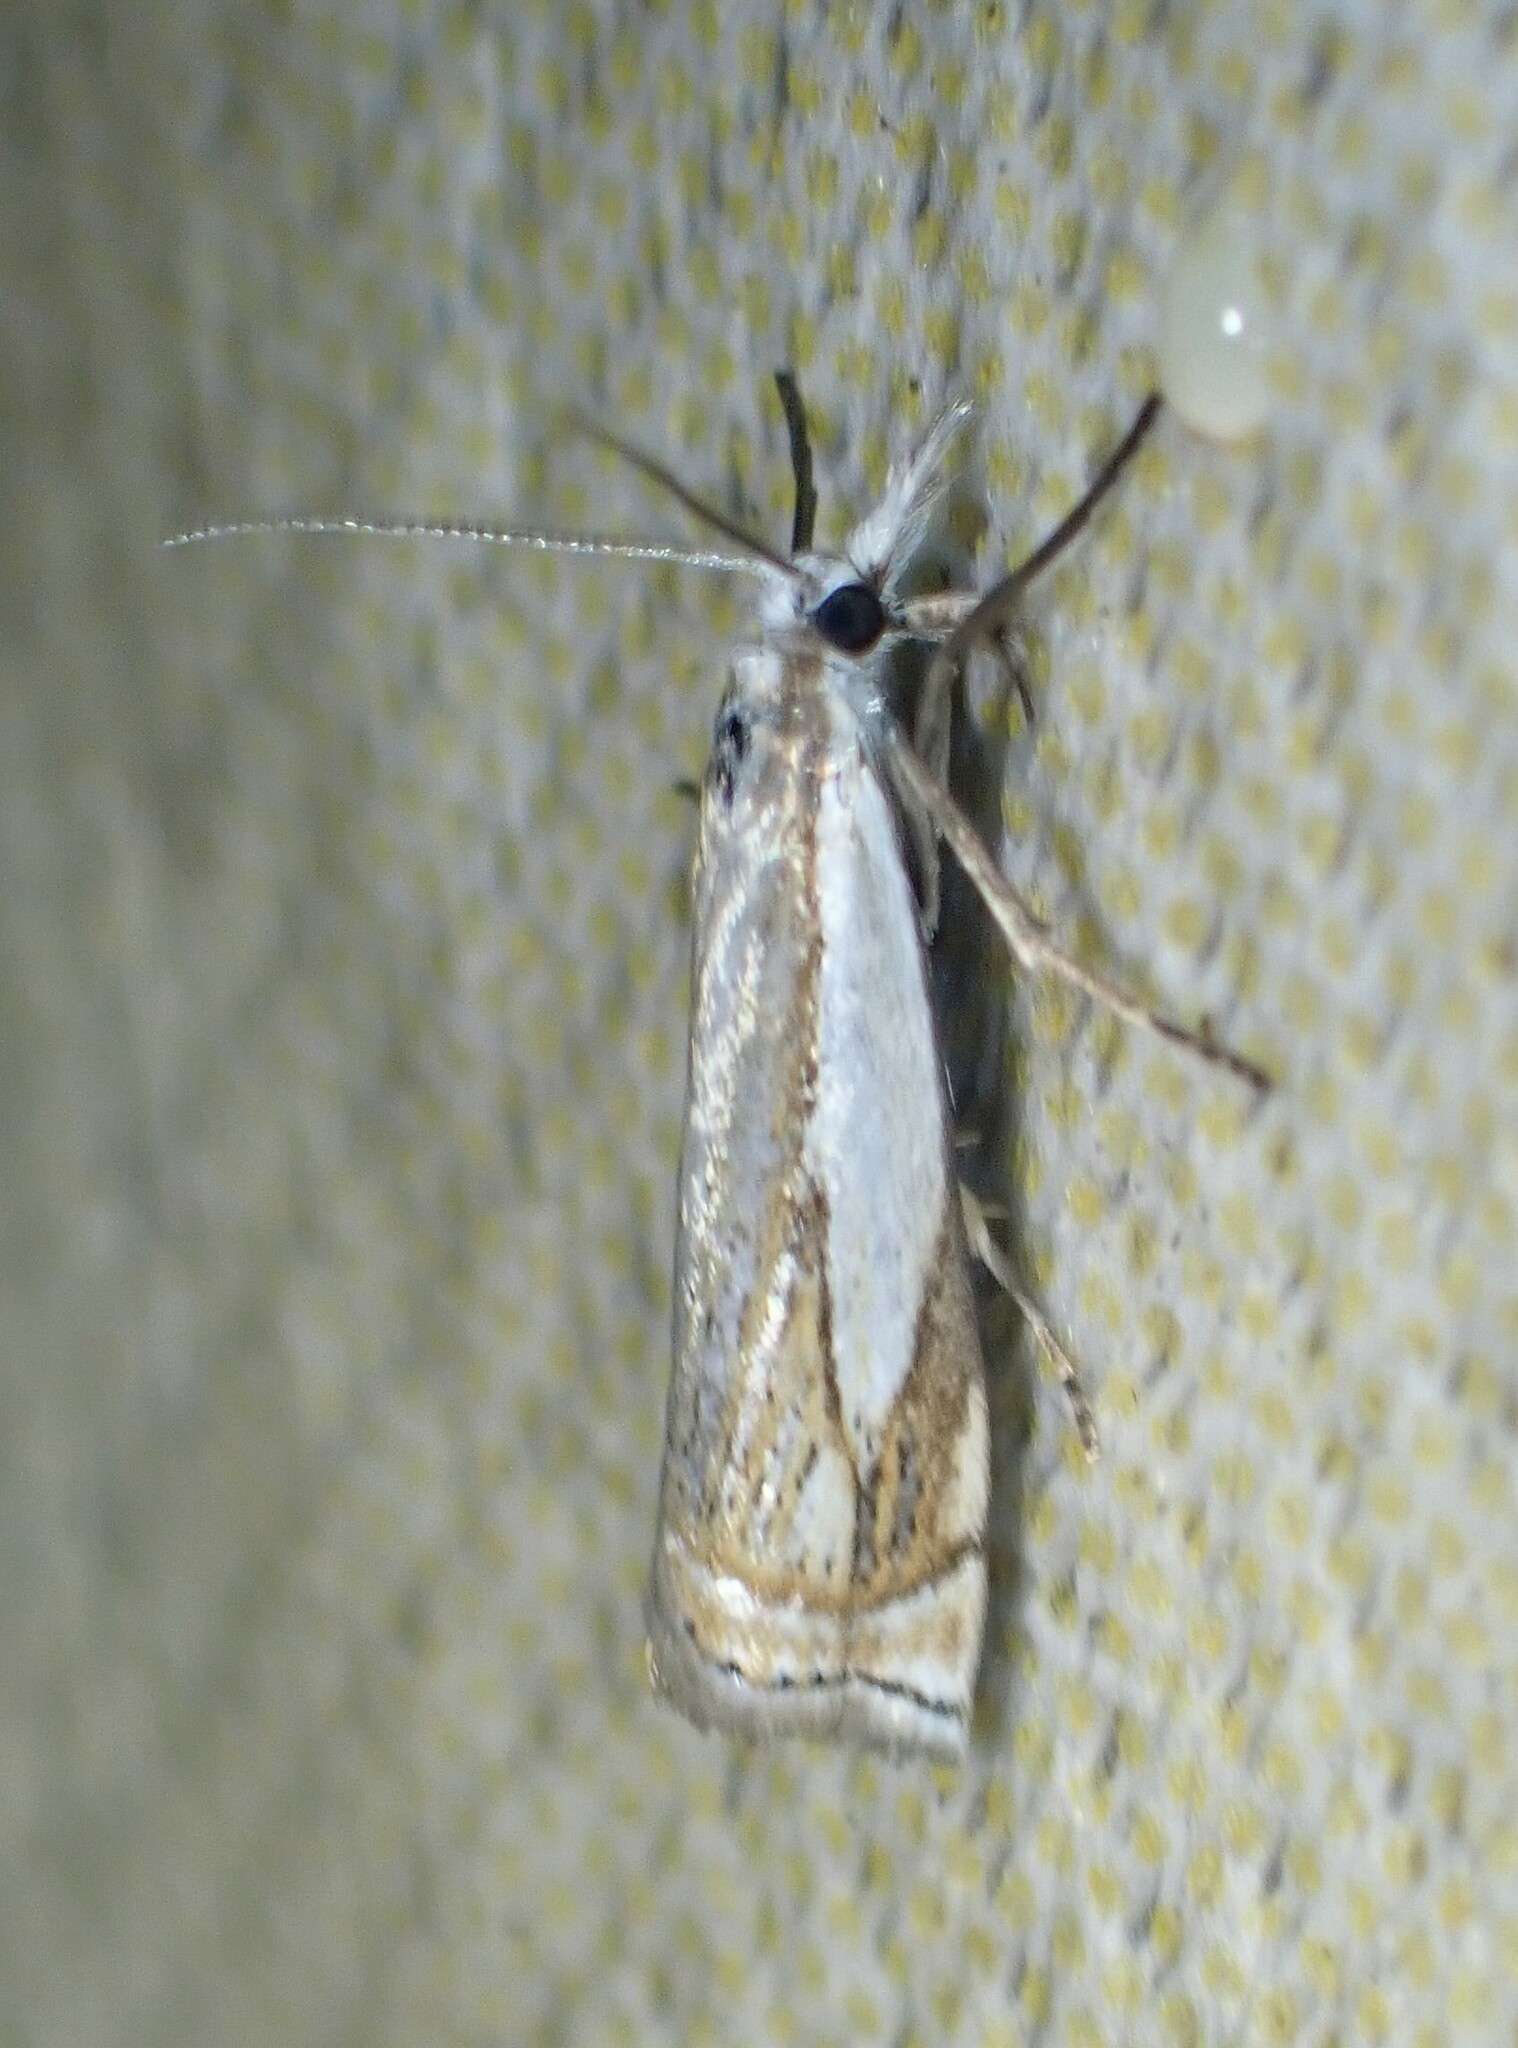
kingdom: Animalia
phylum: Arthropoda
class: Insecta
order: Lepidoptera
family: Crambidae
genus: Crambus
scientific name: Crambus lyonsellus
